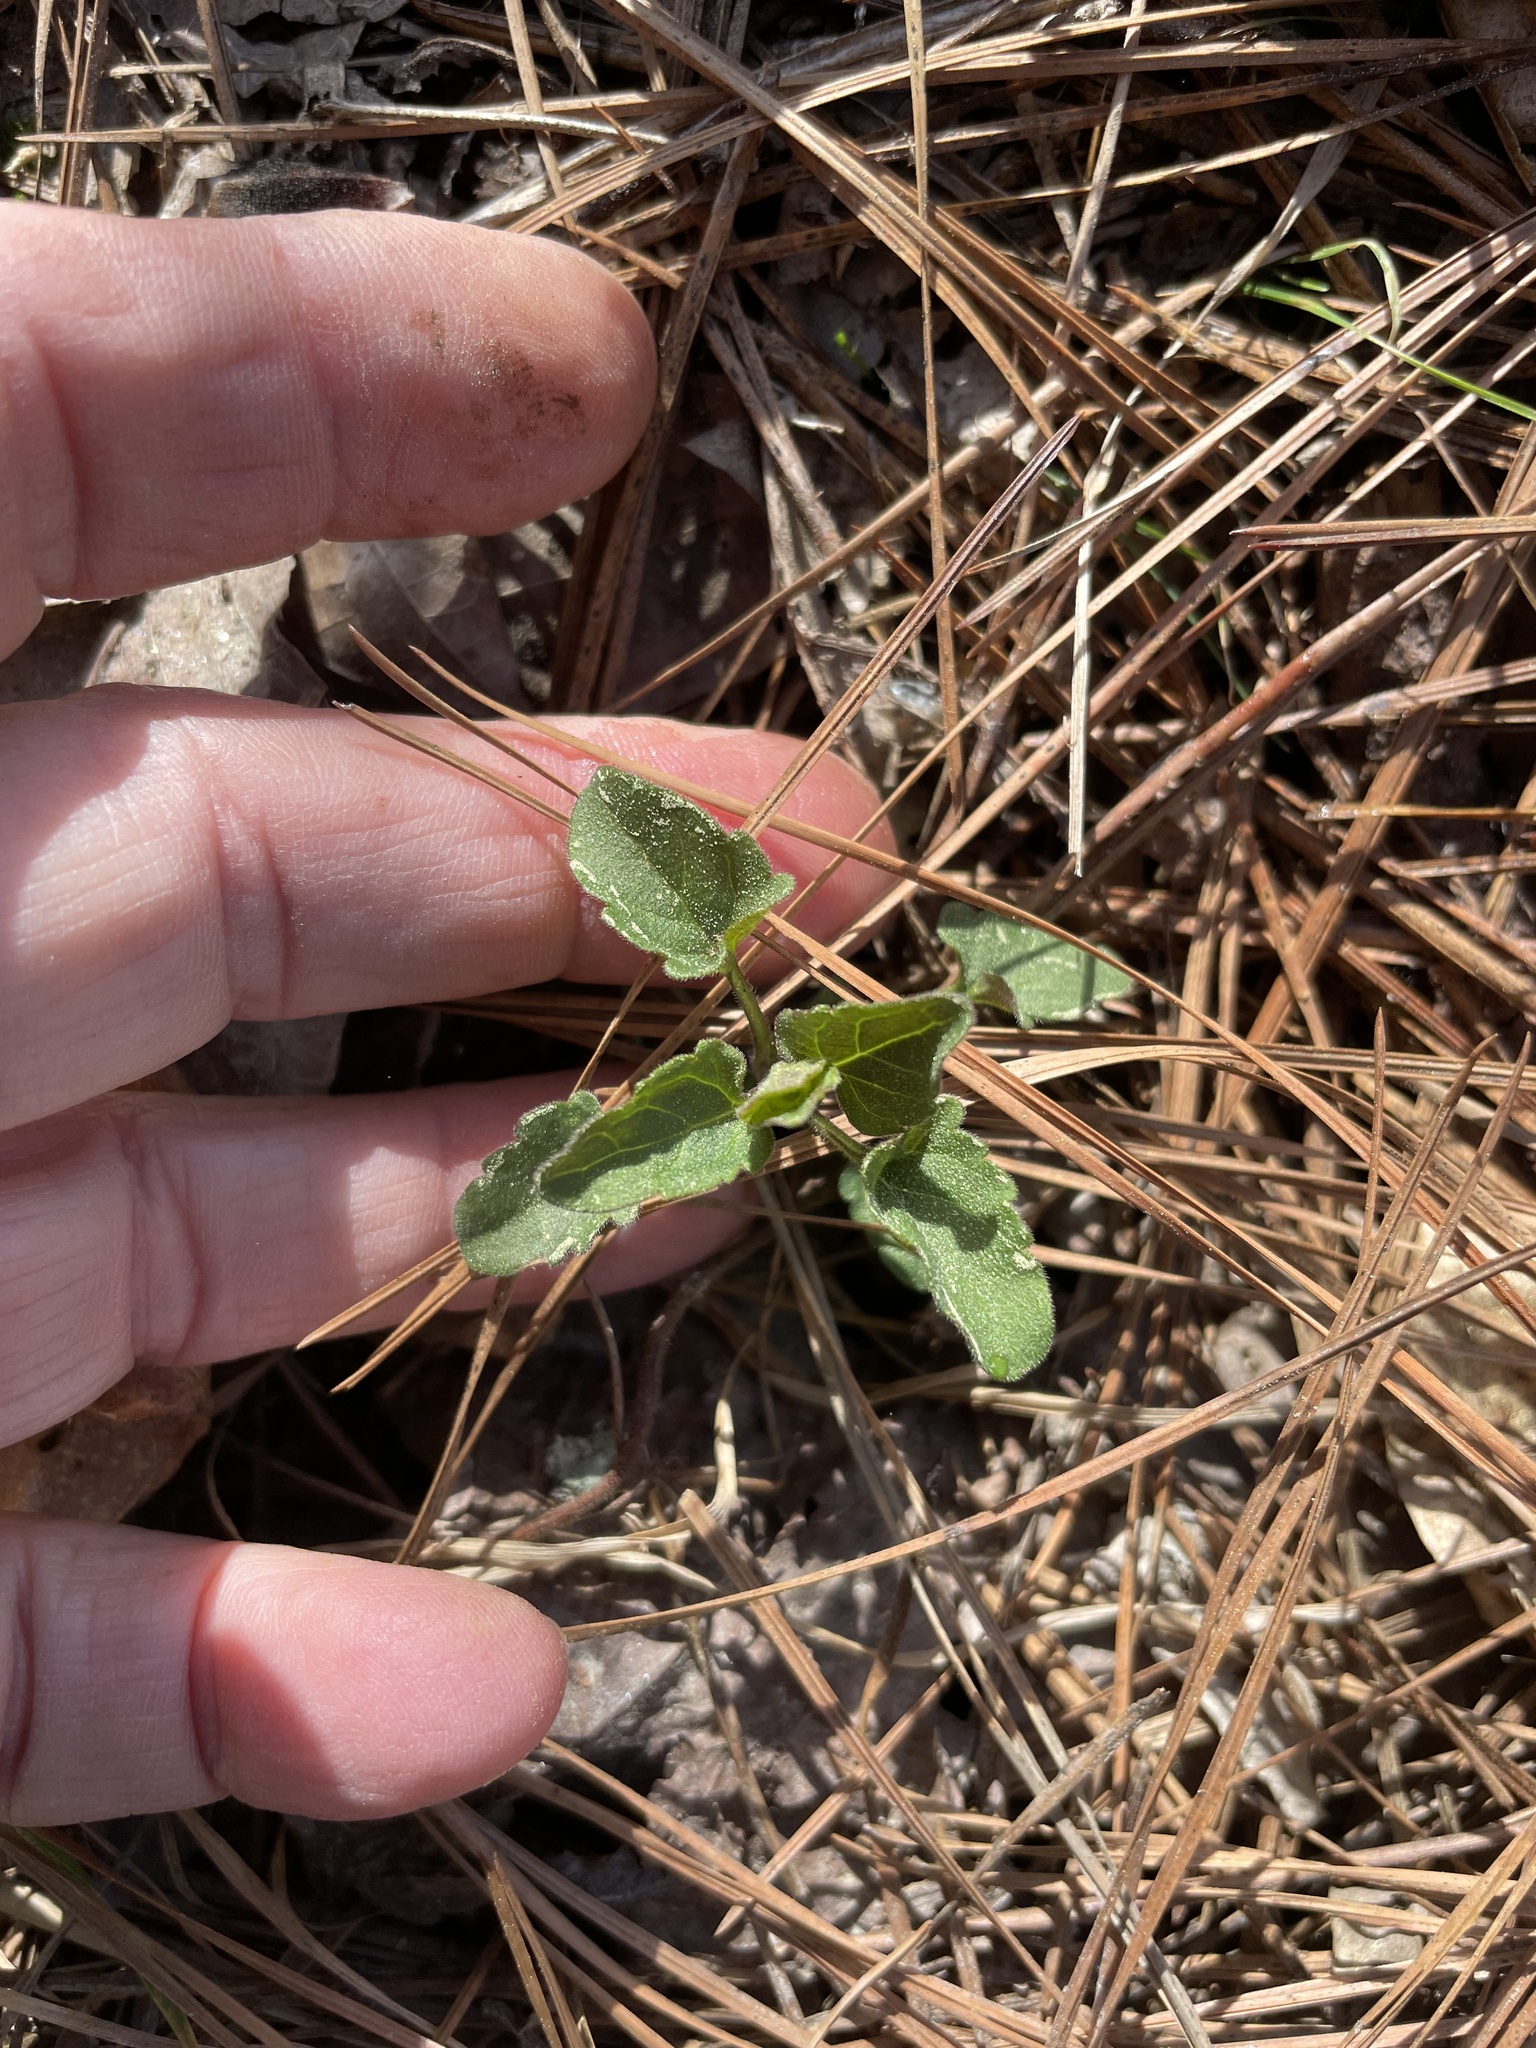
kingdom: Plantae
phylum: Tracheophyta
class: Magnoliopsida
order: Lamiales
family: Lamiaceae
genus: Scutellaria
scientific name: Scutellaria integrifolia
